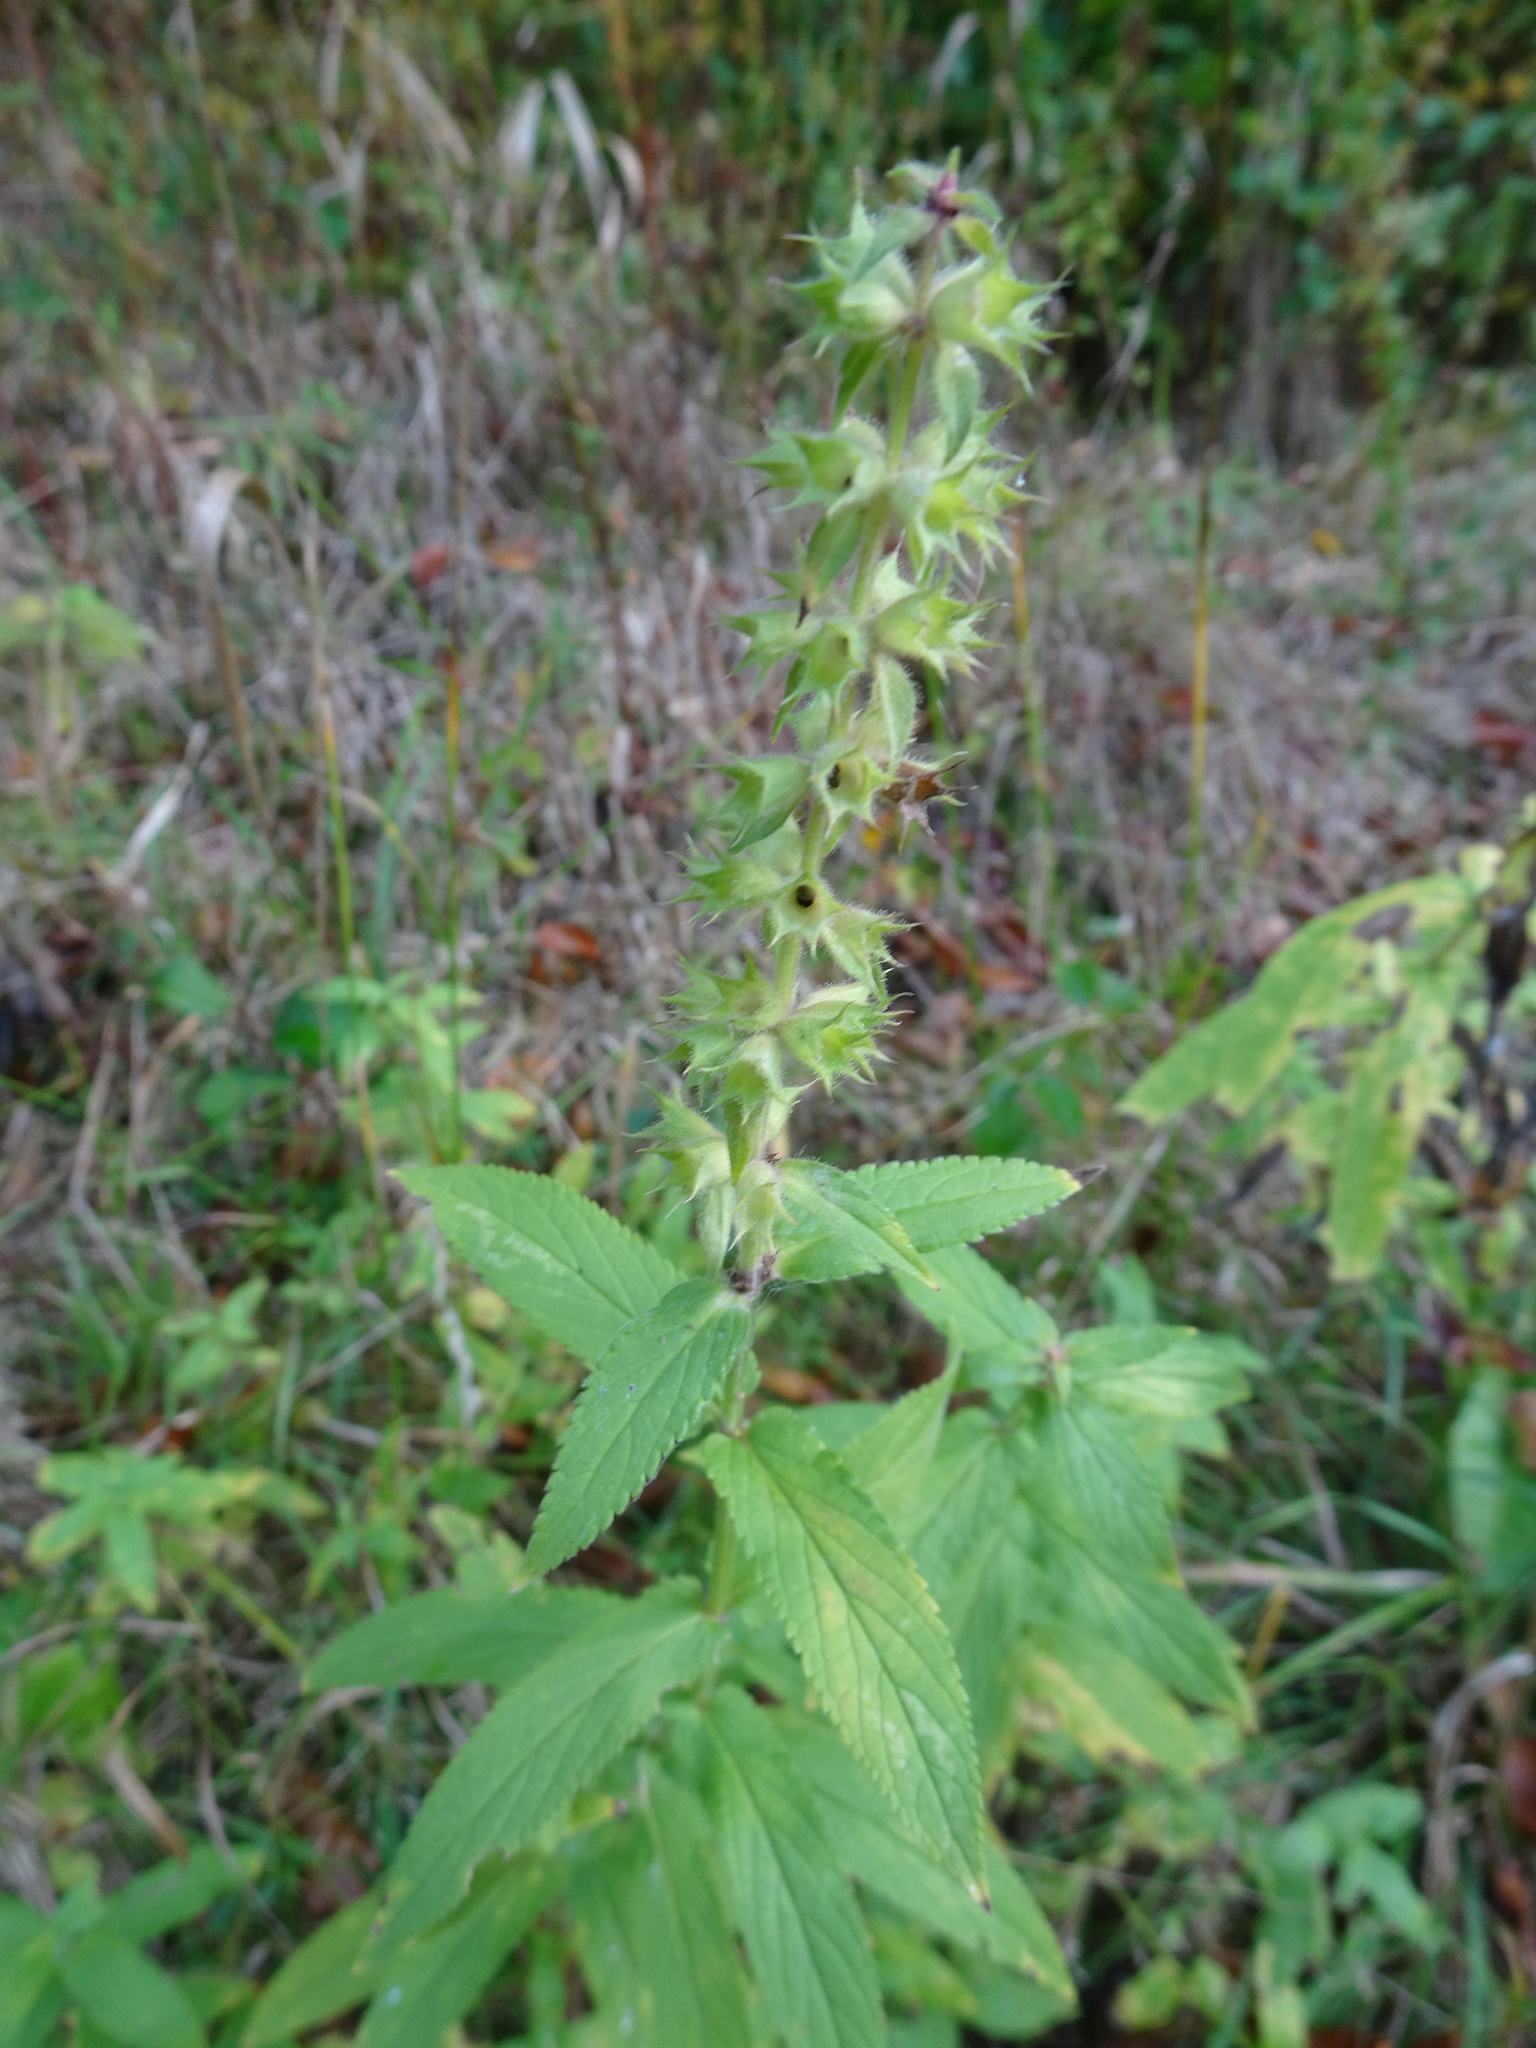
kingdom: Plantae
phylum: Tracheophyta
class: Magnoliopsida
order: Lamiales
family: Lamiaceae
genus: Stachys
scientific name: Stachys palustris
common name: Marsh woundwort
